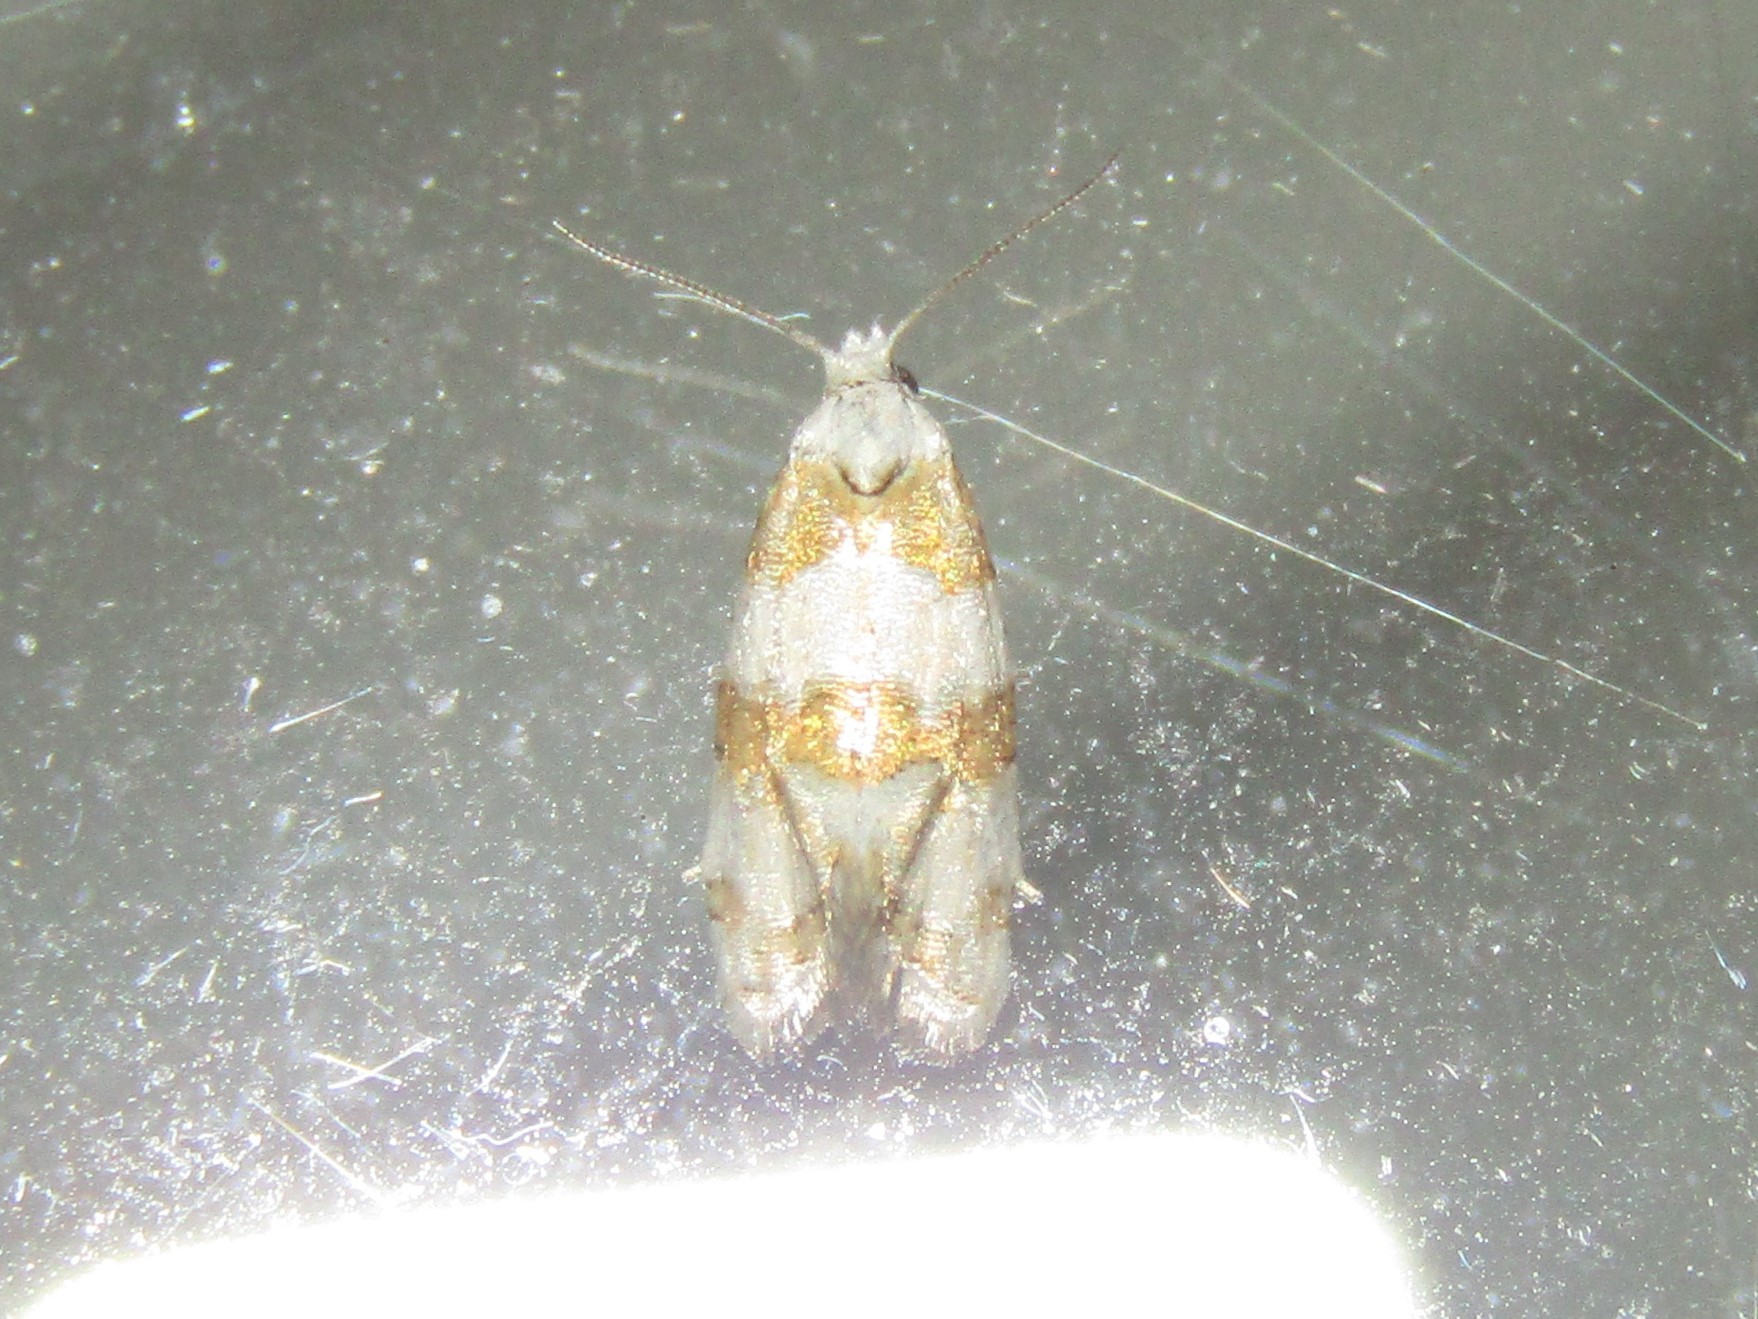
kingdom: Animalia
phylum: Arthropoda
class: Insecta
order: Lepidoptera
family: Tortricidae
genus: Aethes
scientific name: Aethes argentilimitana
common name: Silver-bordered aethes
